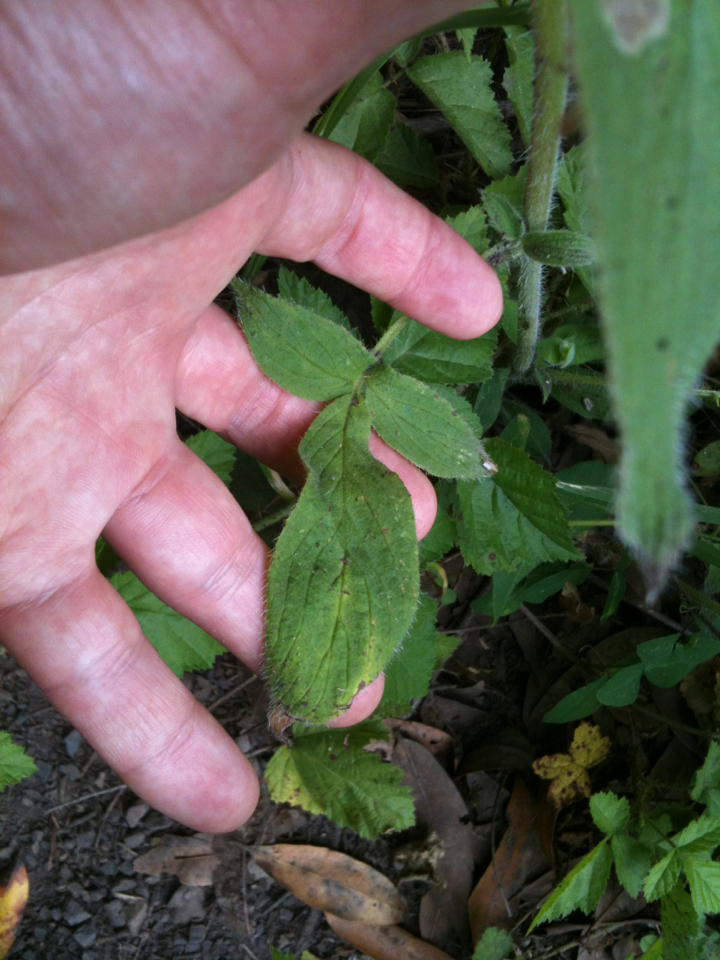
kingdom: Plantae
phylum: Tracheophyta
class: Magnoliopsida
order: Boraginales
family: Hydrophyllaceae
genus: Phacelia
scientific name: Phacelia californica
